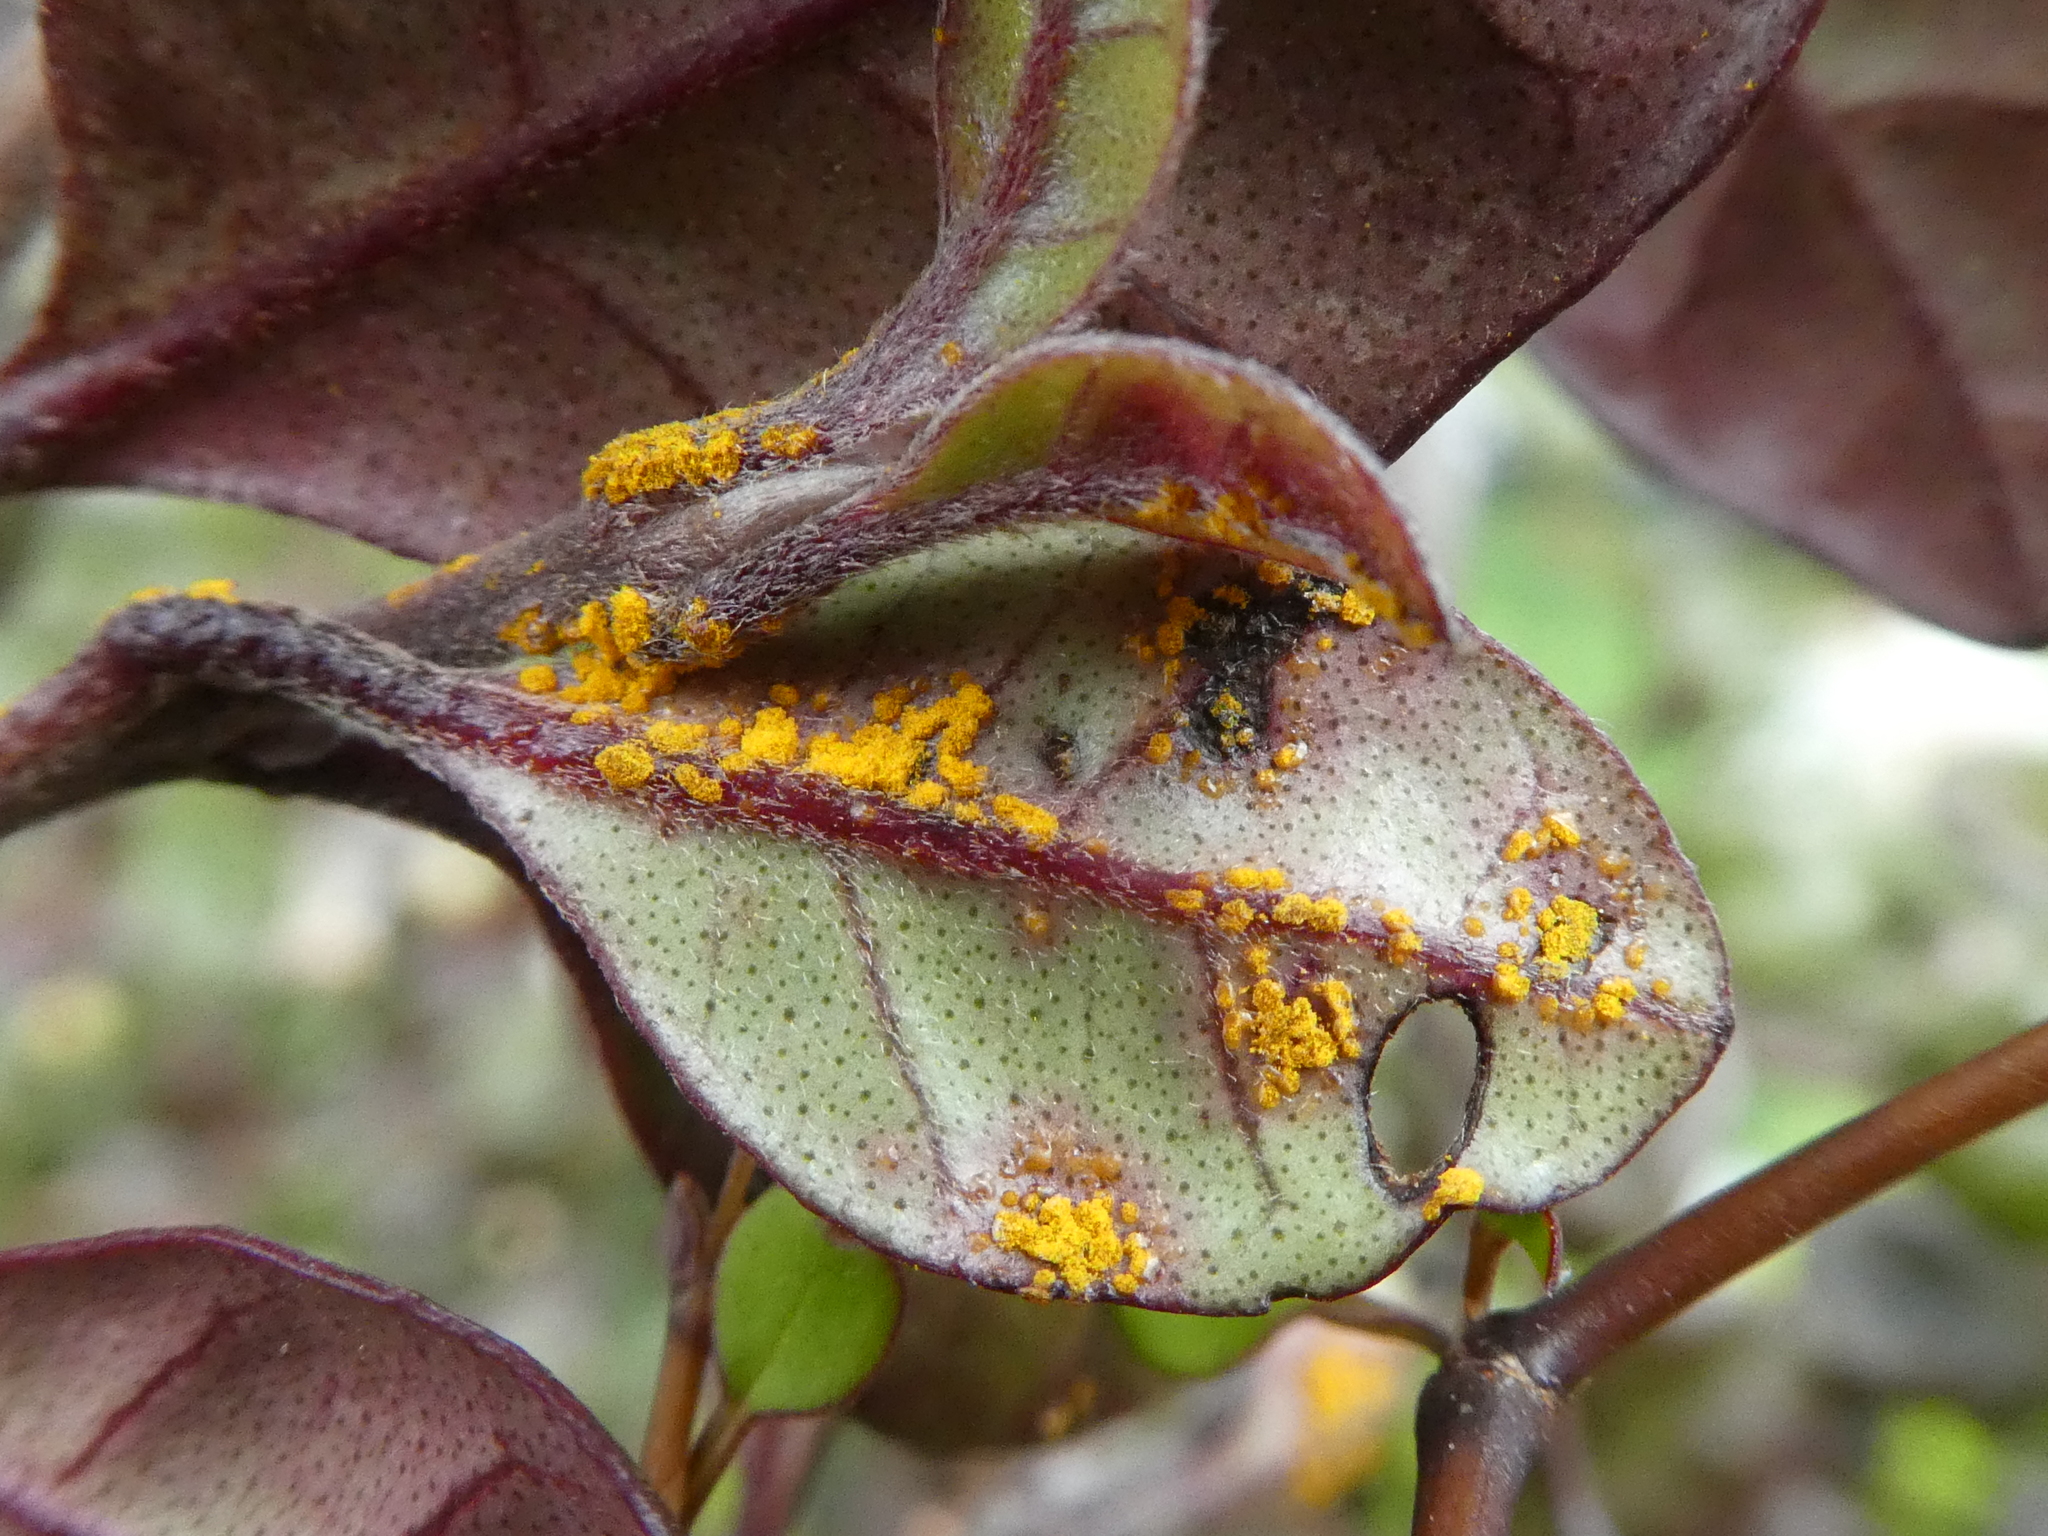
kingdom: Fungi
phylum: Basidiomycota
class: Pucciniomycetes
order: Pucciniales
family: Sphaerophragmiaceae
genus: Austropuccinia
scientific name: Austropuccinia psidii
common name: Myrtle rust
